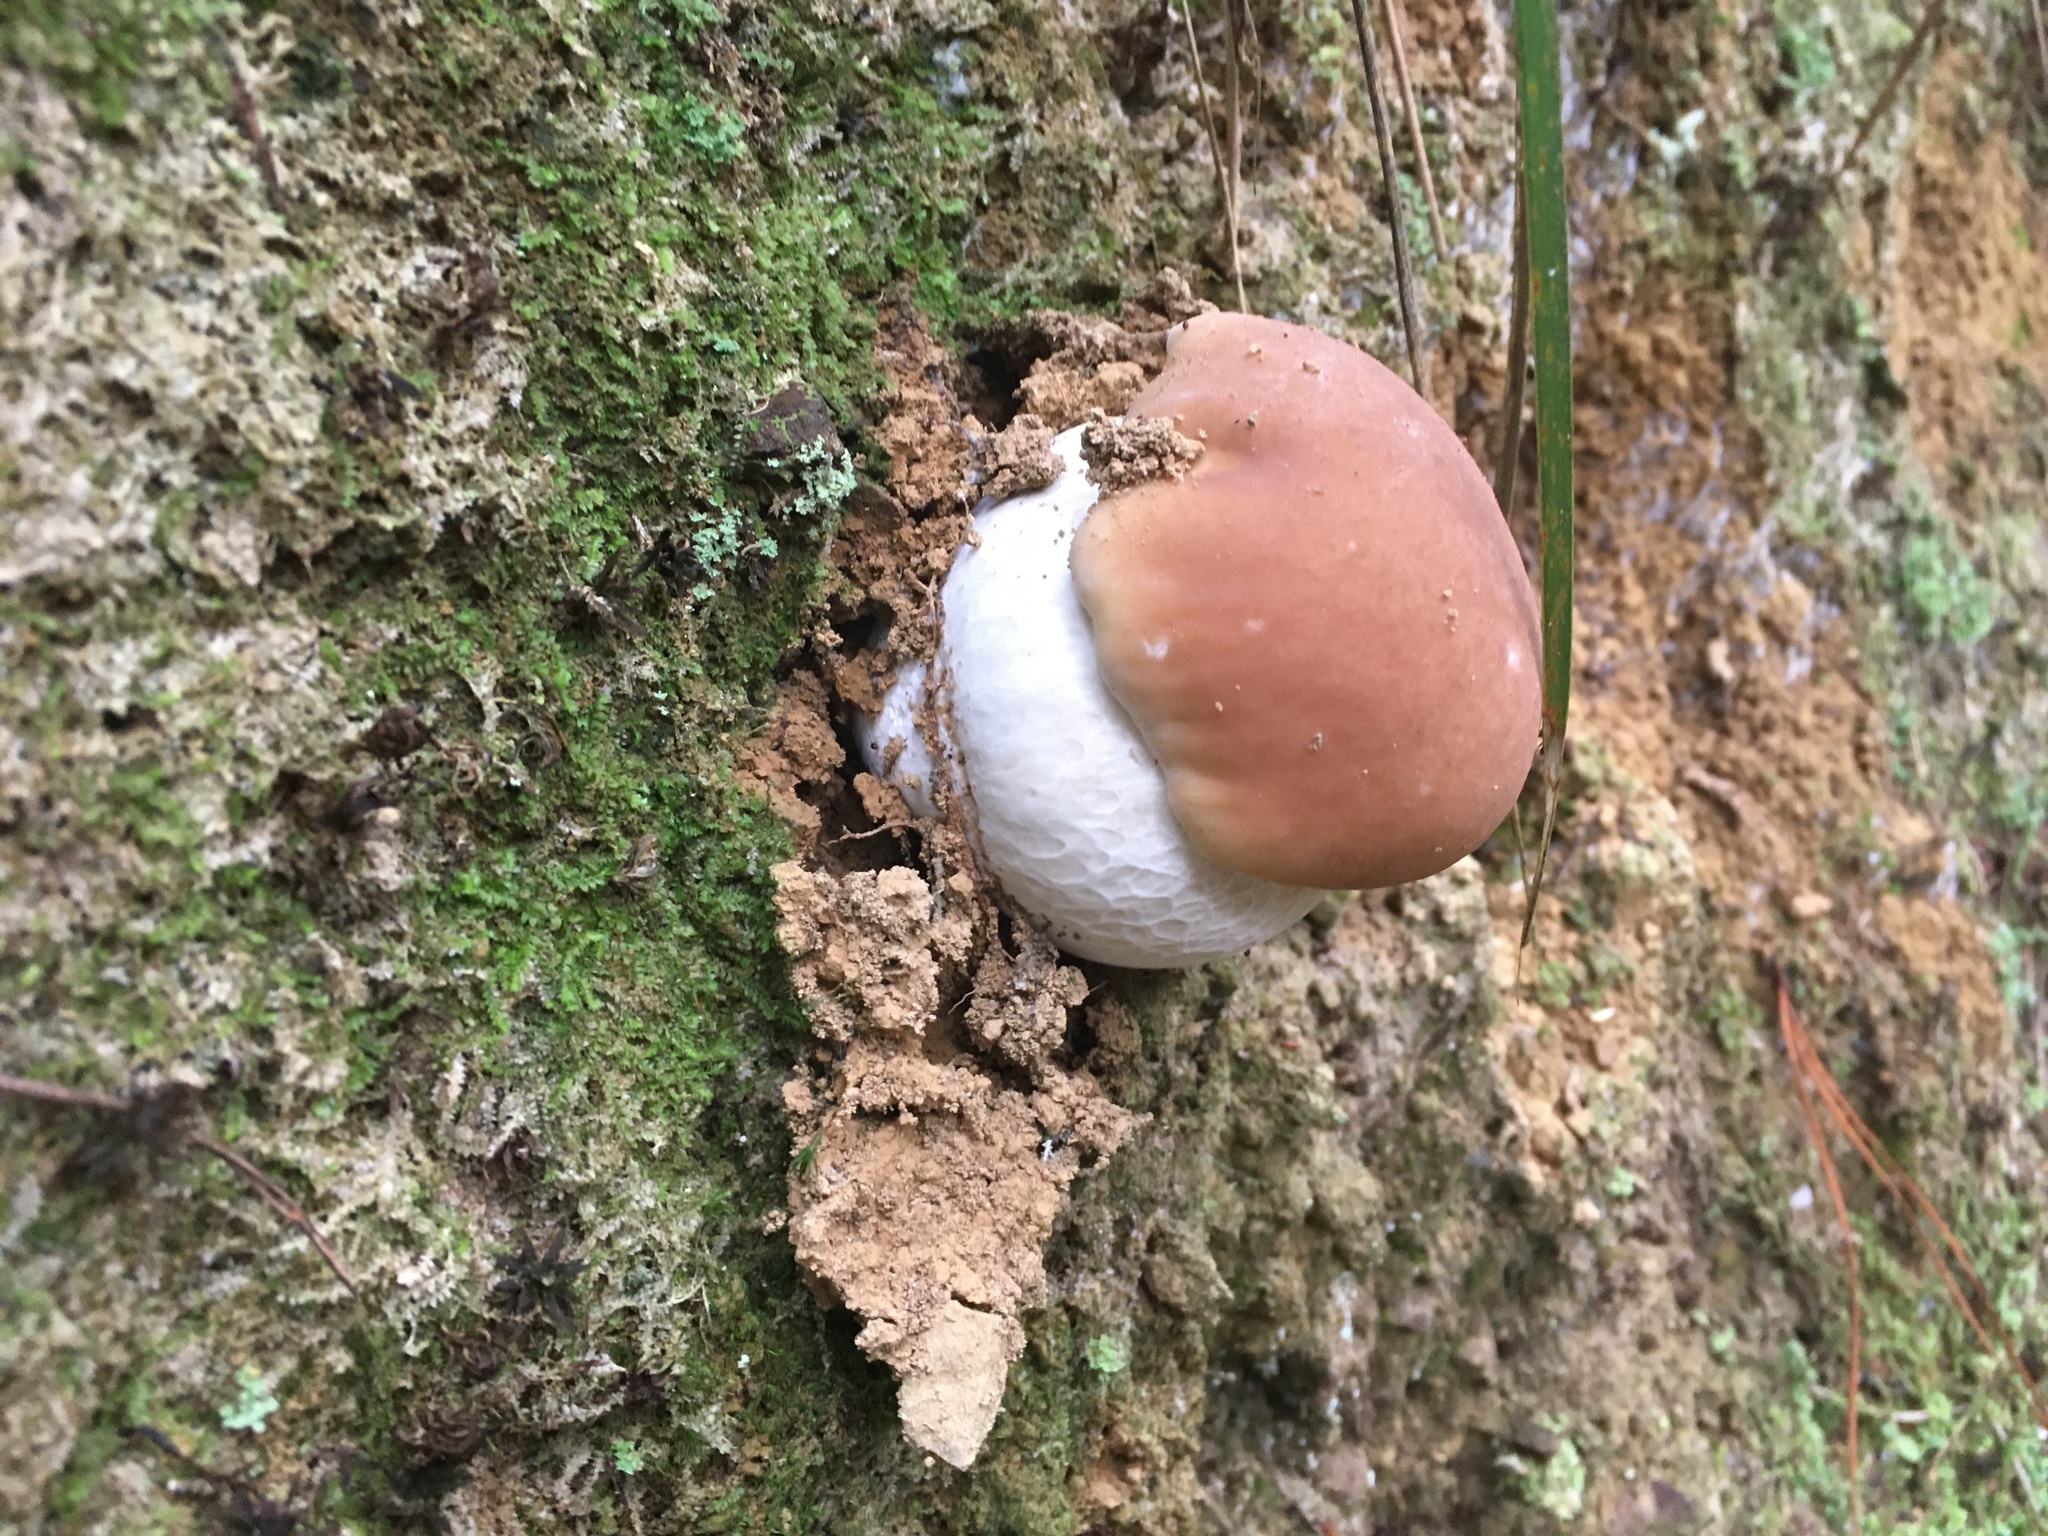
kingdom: Fungi
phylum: Basidiomycota
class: Agaricomycetes
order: Boletales
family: Boletaceae
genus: Boletus
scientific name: Boletus edulis
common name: Cep
